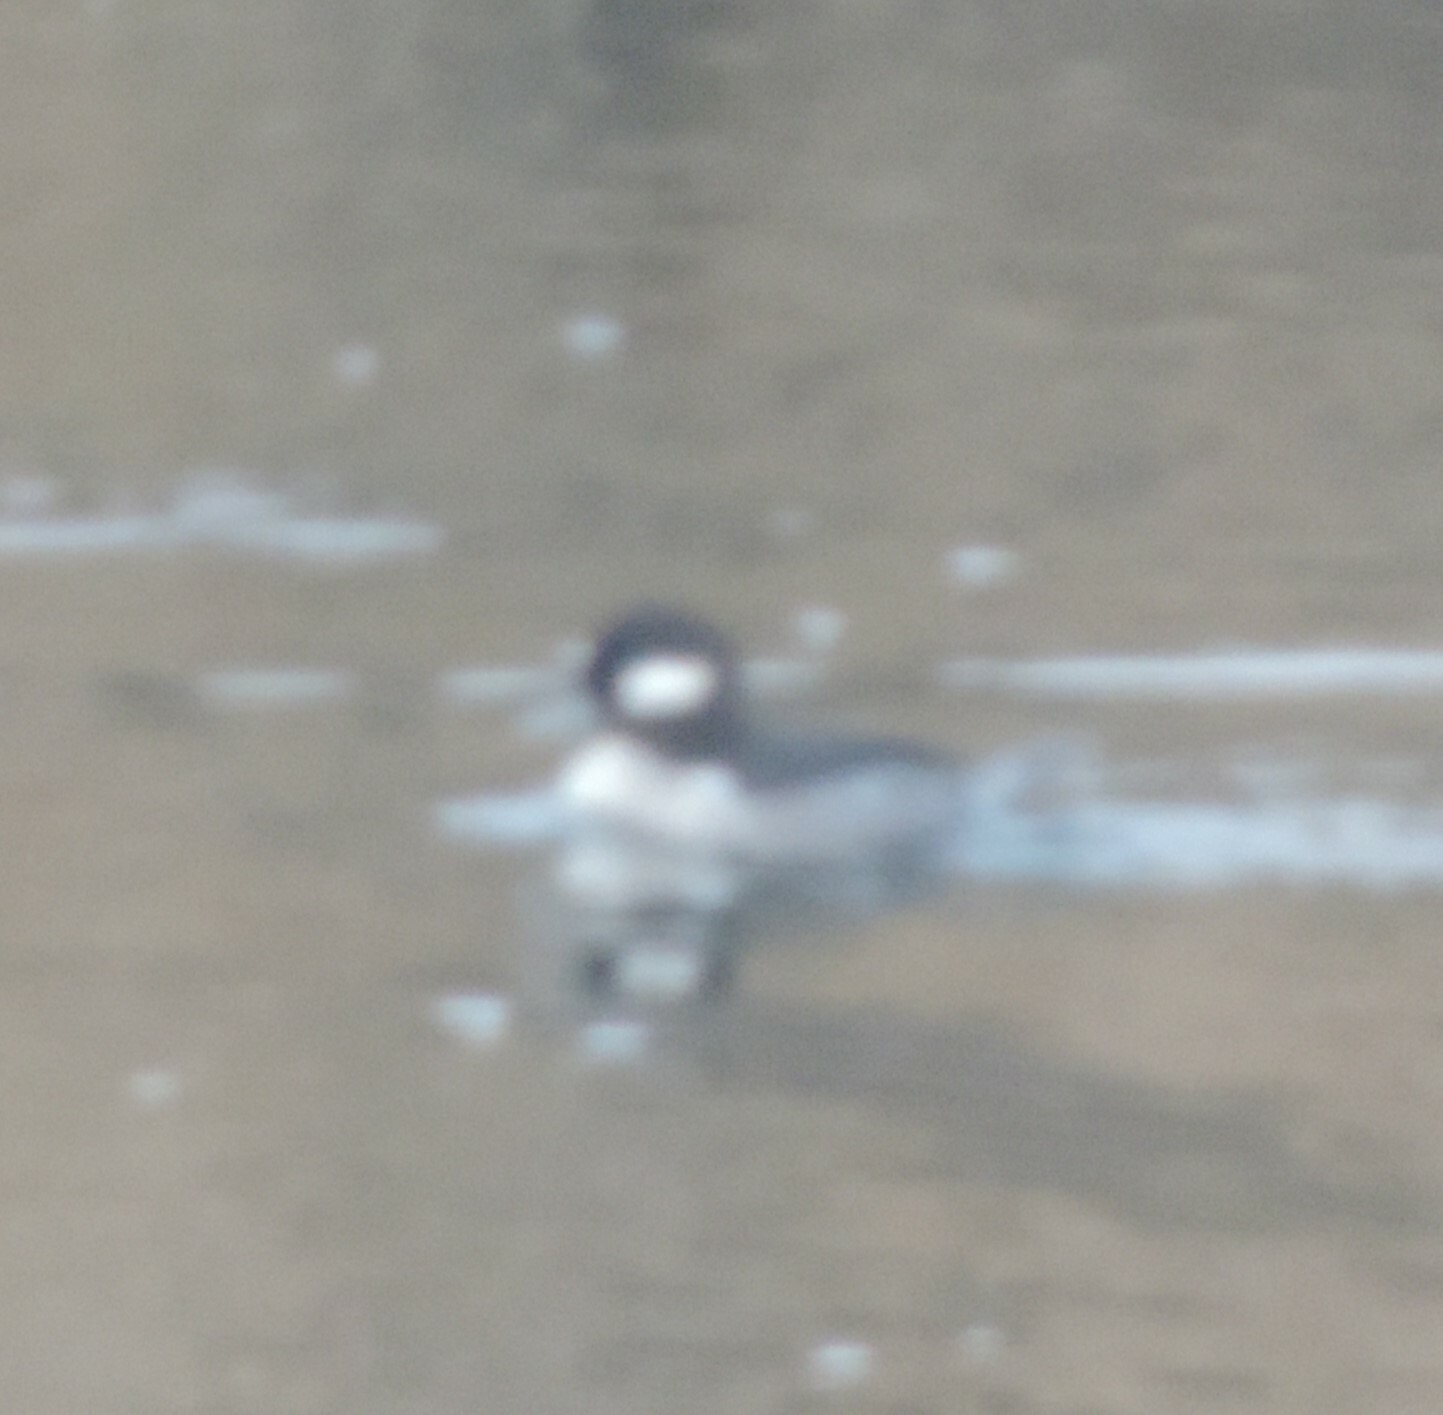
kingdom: Animalia
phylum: Chordata
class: Aves
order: Anseriformes
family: Anatidae
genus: Bucephala
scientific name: Bucephala albeola
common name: Bufflehead
